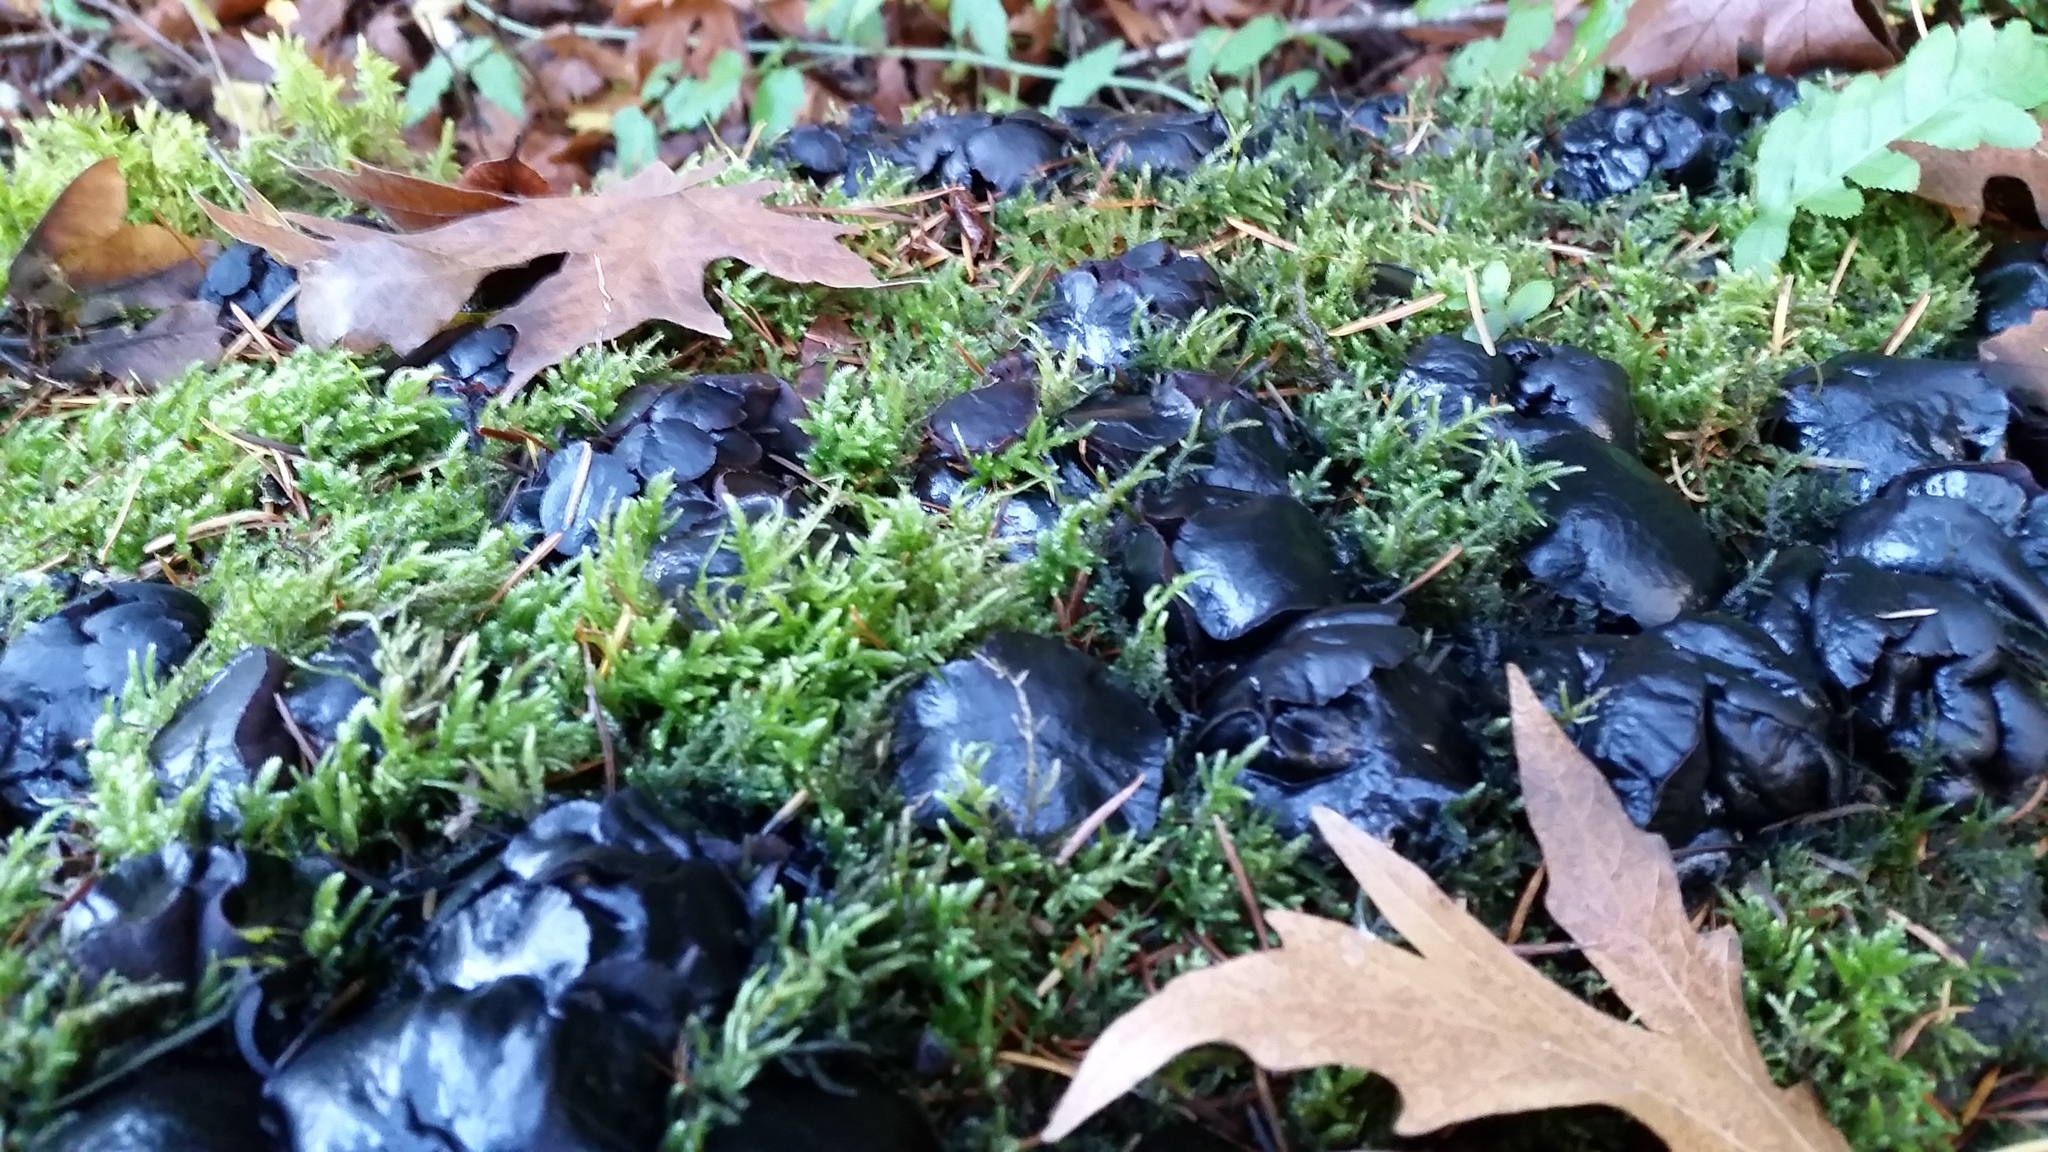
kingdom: Fungi
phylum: Ascomycota
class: Leotiomycetes
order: Phacidiales
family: Phacidiaceae
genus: Bulgaria
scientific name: Bulgaria inquinans
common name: Black bulgar
